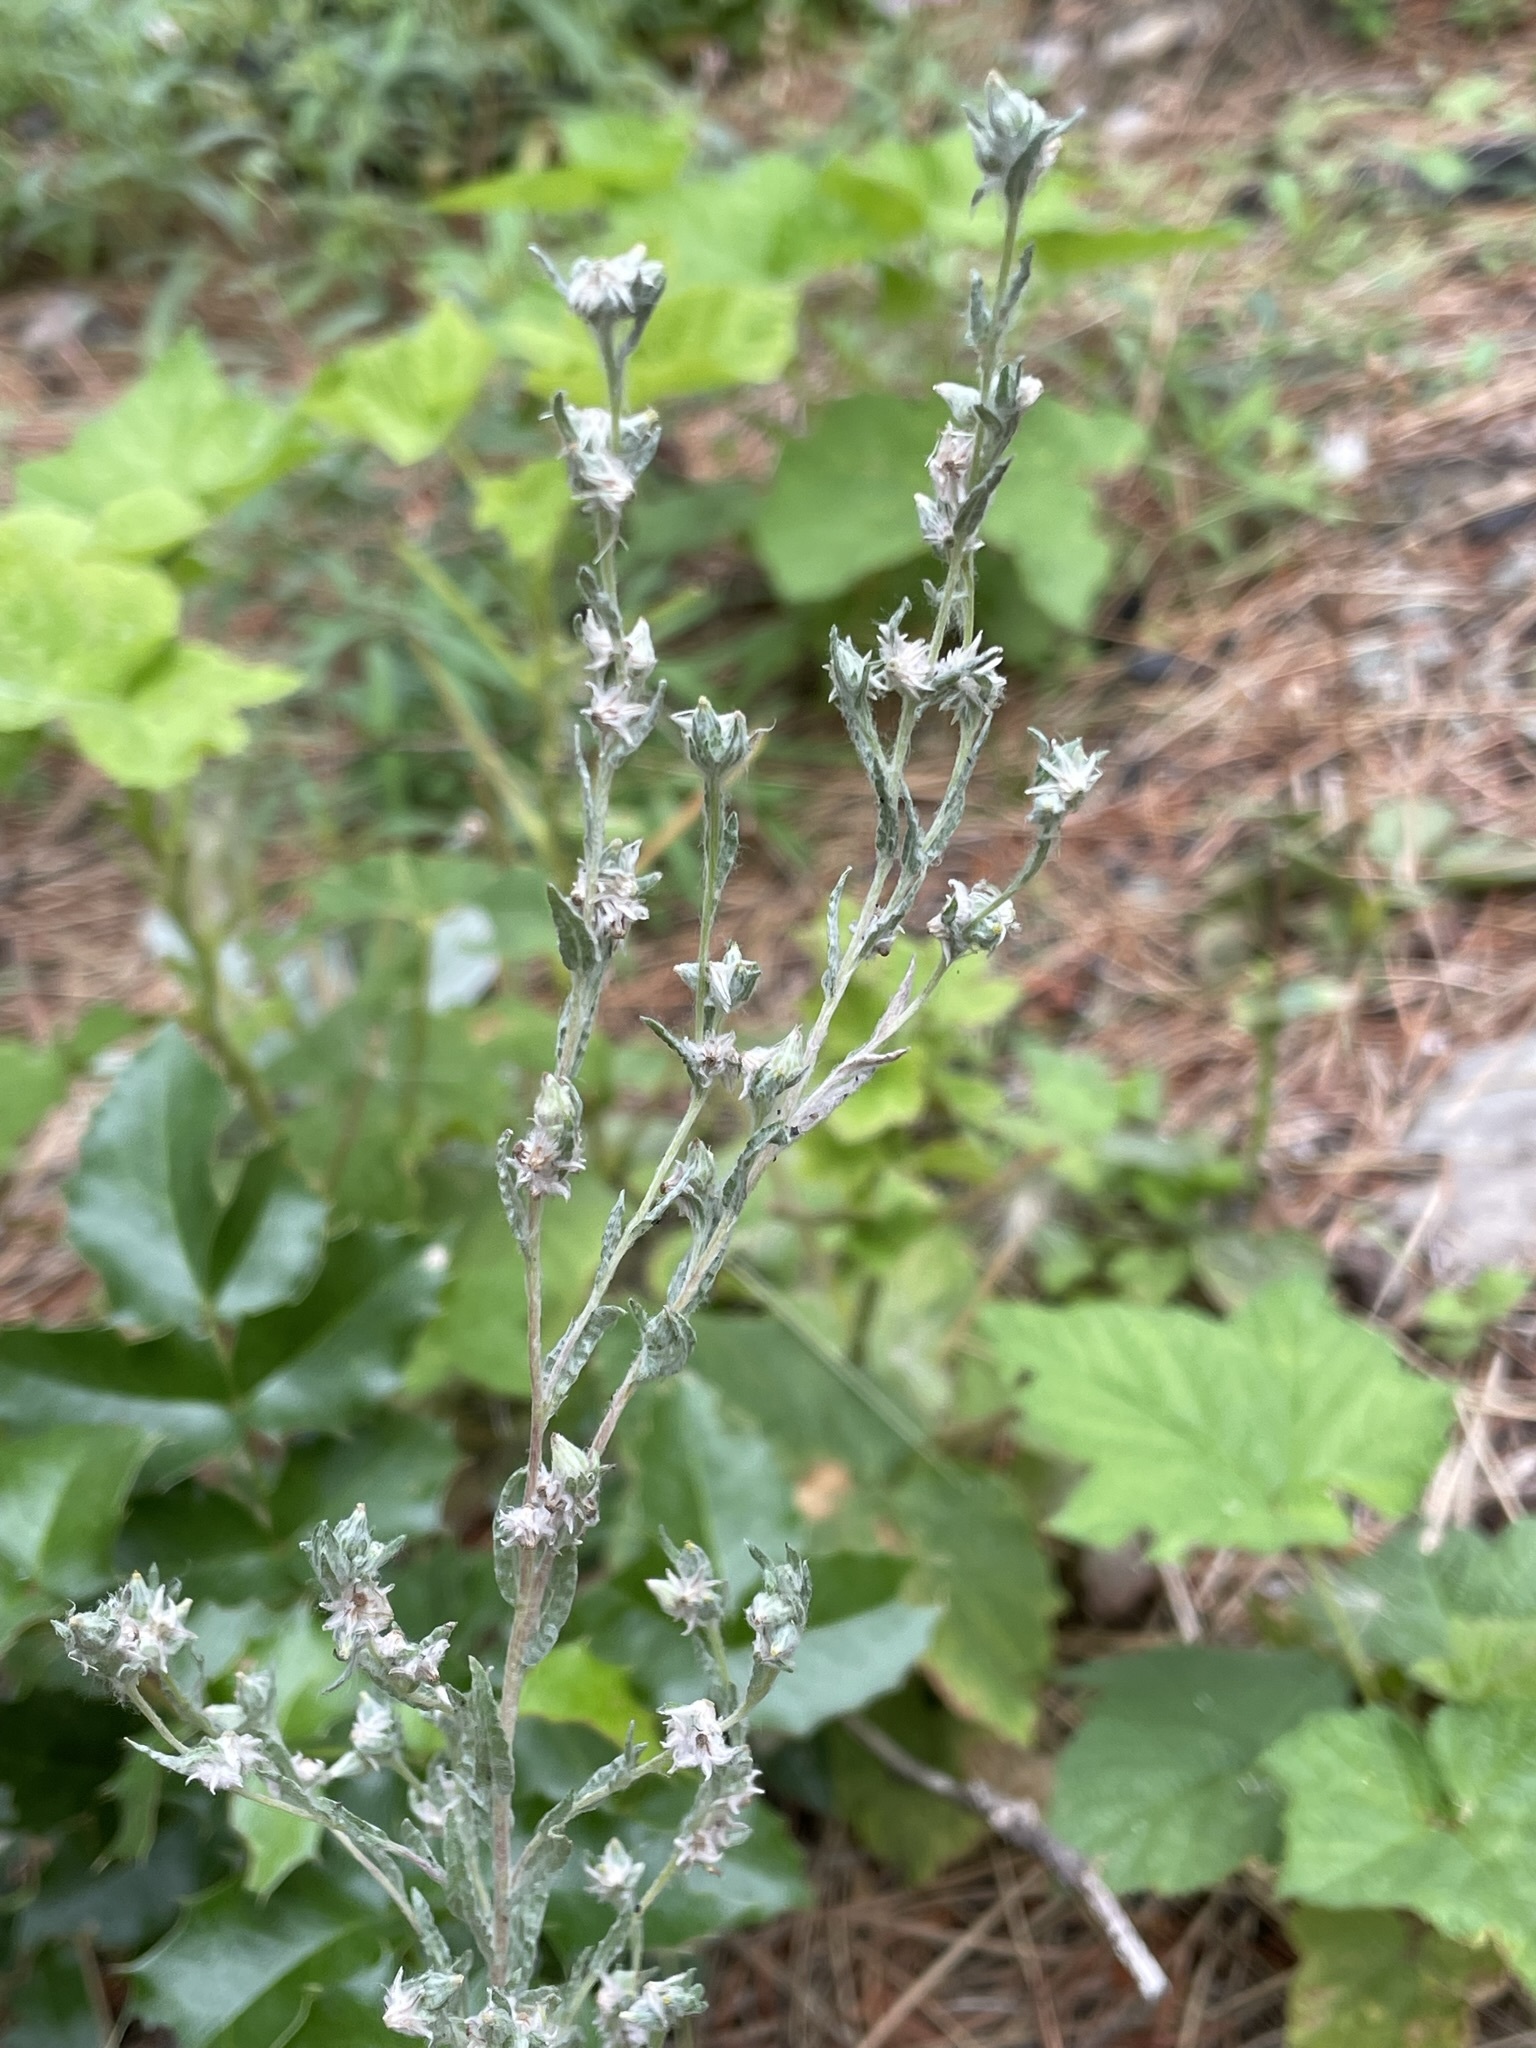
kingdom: Plantae
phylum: Tracheophyta
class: Magnoliopsida
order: Asterales
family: Asteraceae
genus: Filago
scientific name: Filago arvensis
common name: Field cudweed
